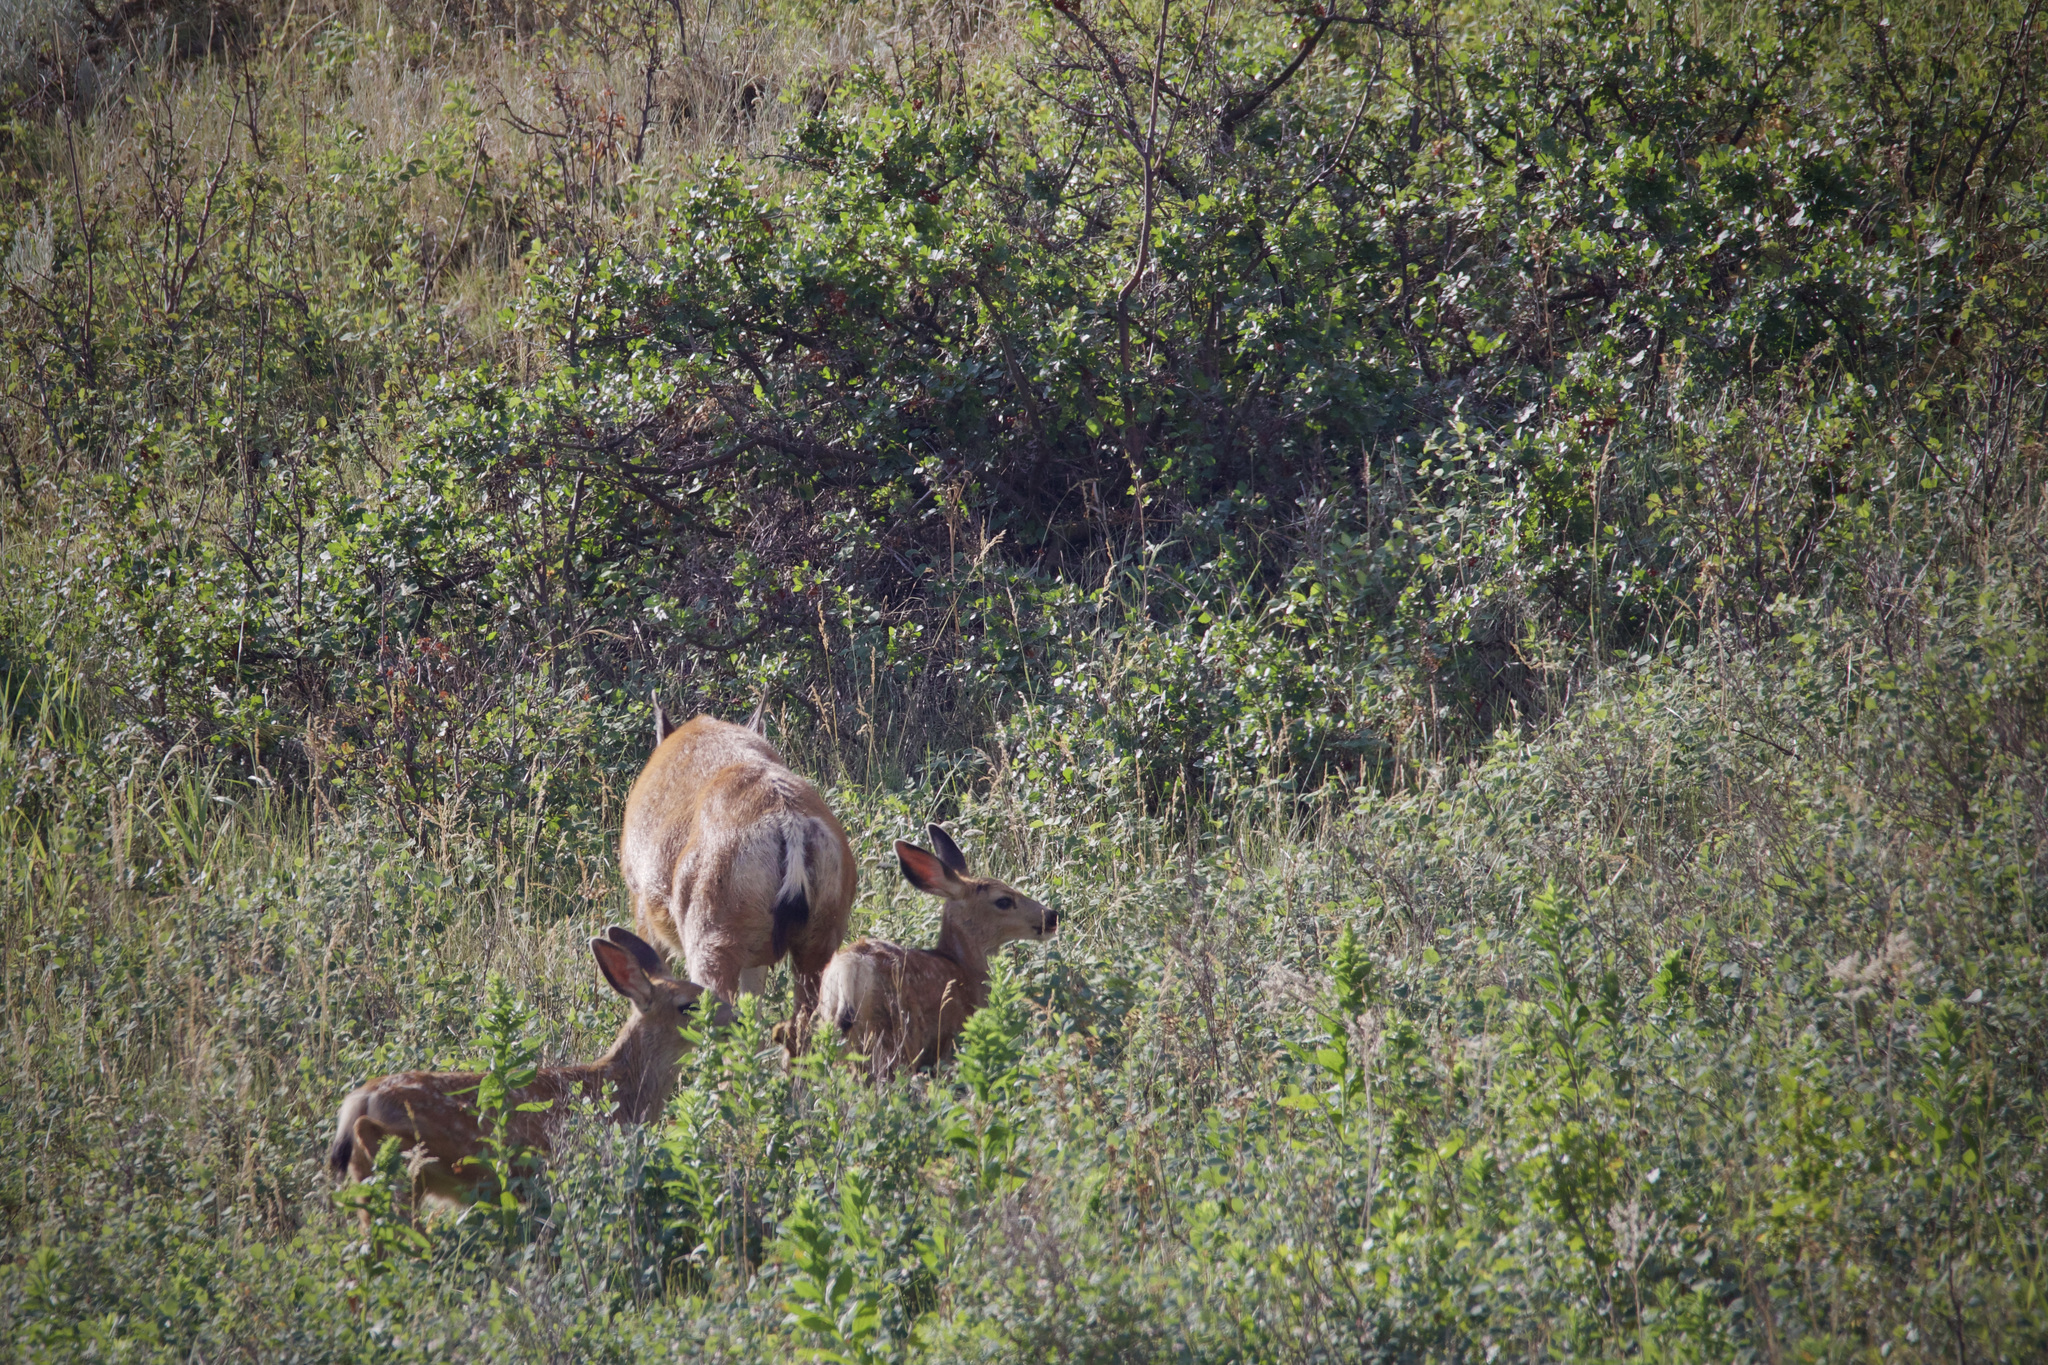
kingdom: Animalia
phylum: Chordata
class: Mammalia
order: Artiodactyla
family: Cervidae
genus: Odocoileus
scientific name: Odocoileus hemionus
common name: Mule deer
